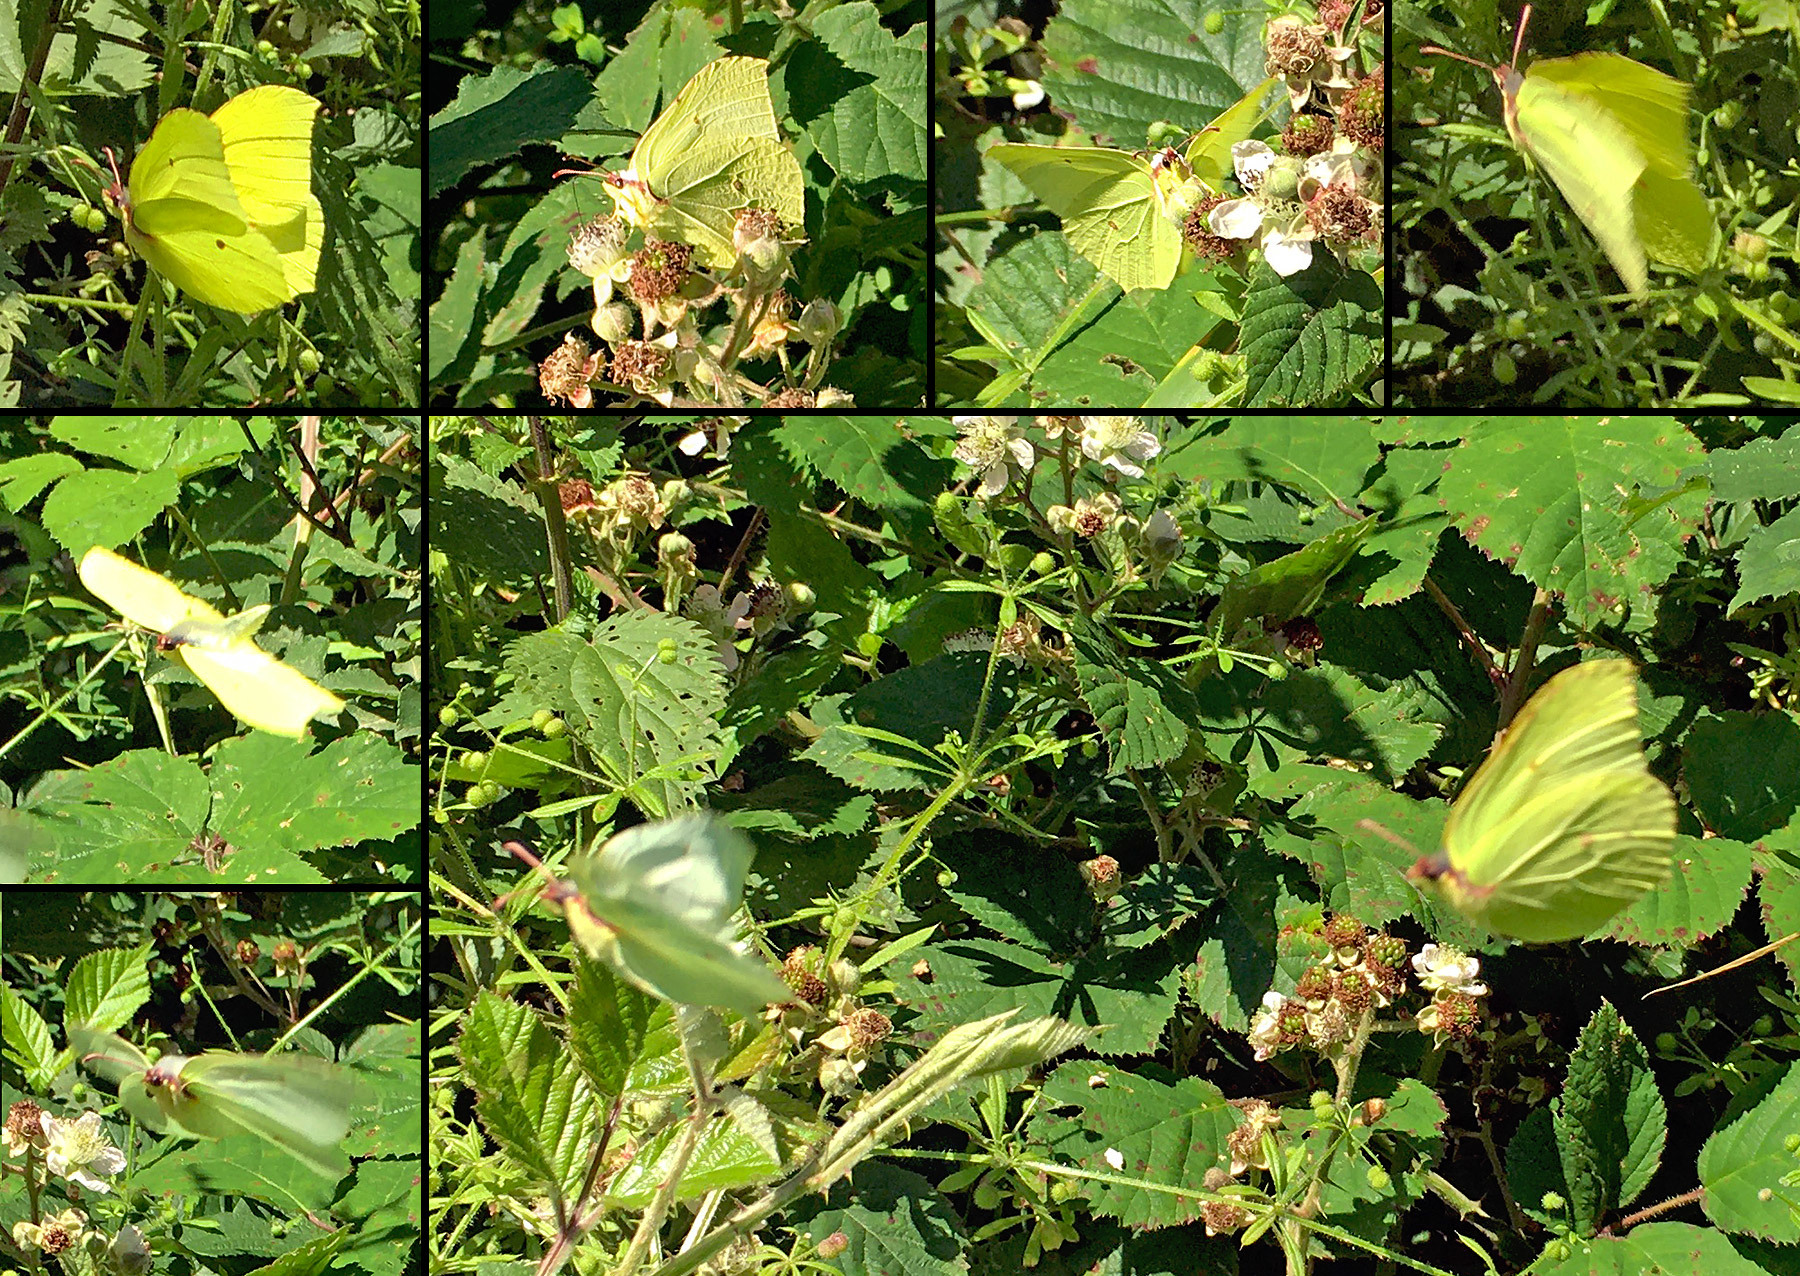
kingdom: Animalia
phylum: Arthropoda
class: Insecta
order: Lepidoptera
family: Pieridae
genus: Gonepteryx
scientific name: Gonepteryx rhamni
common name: Brimstone
